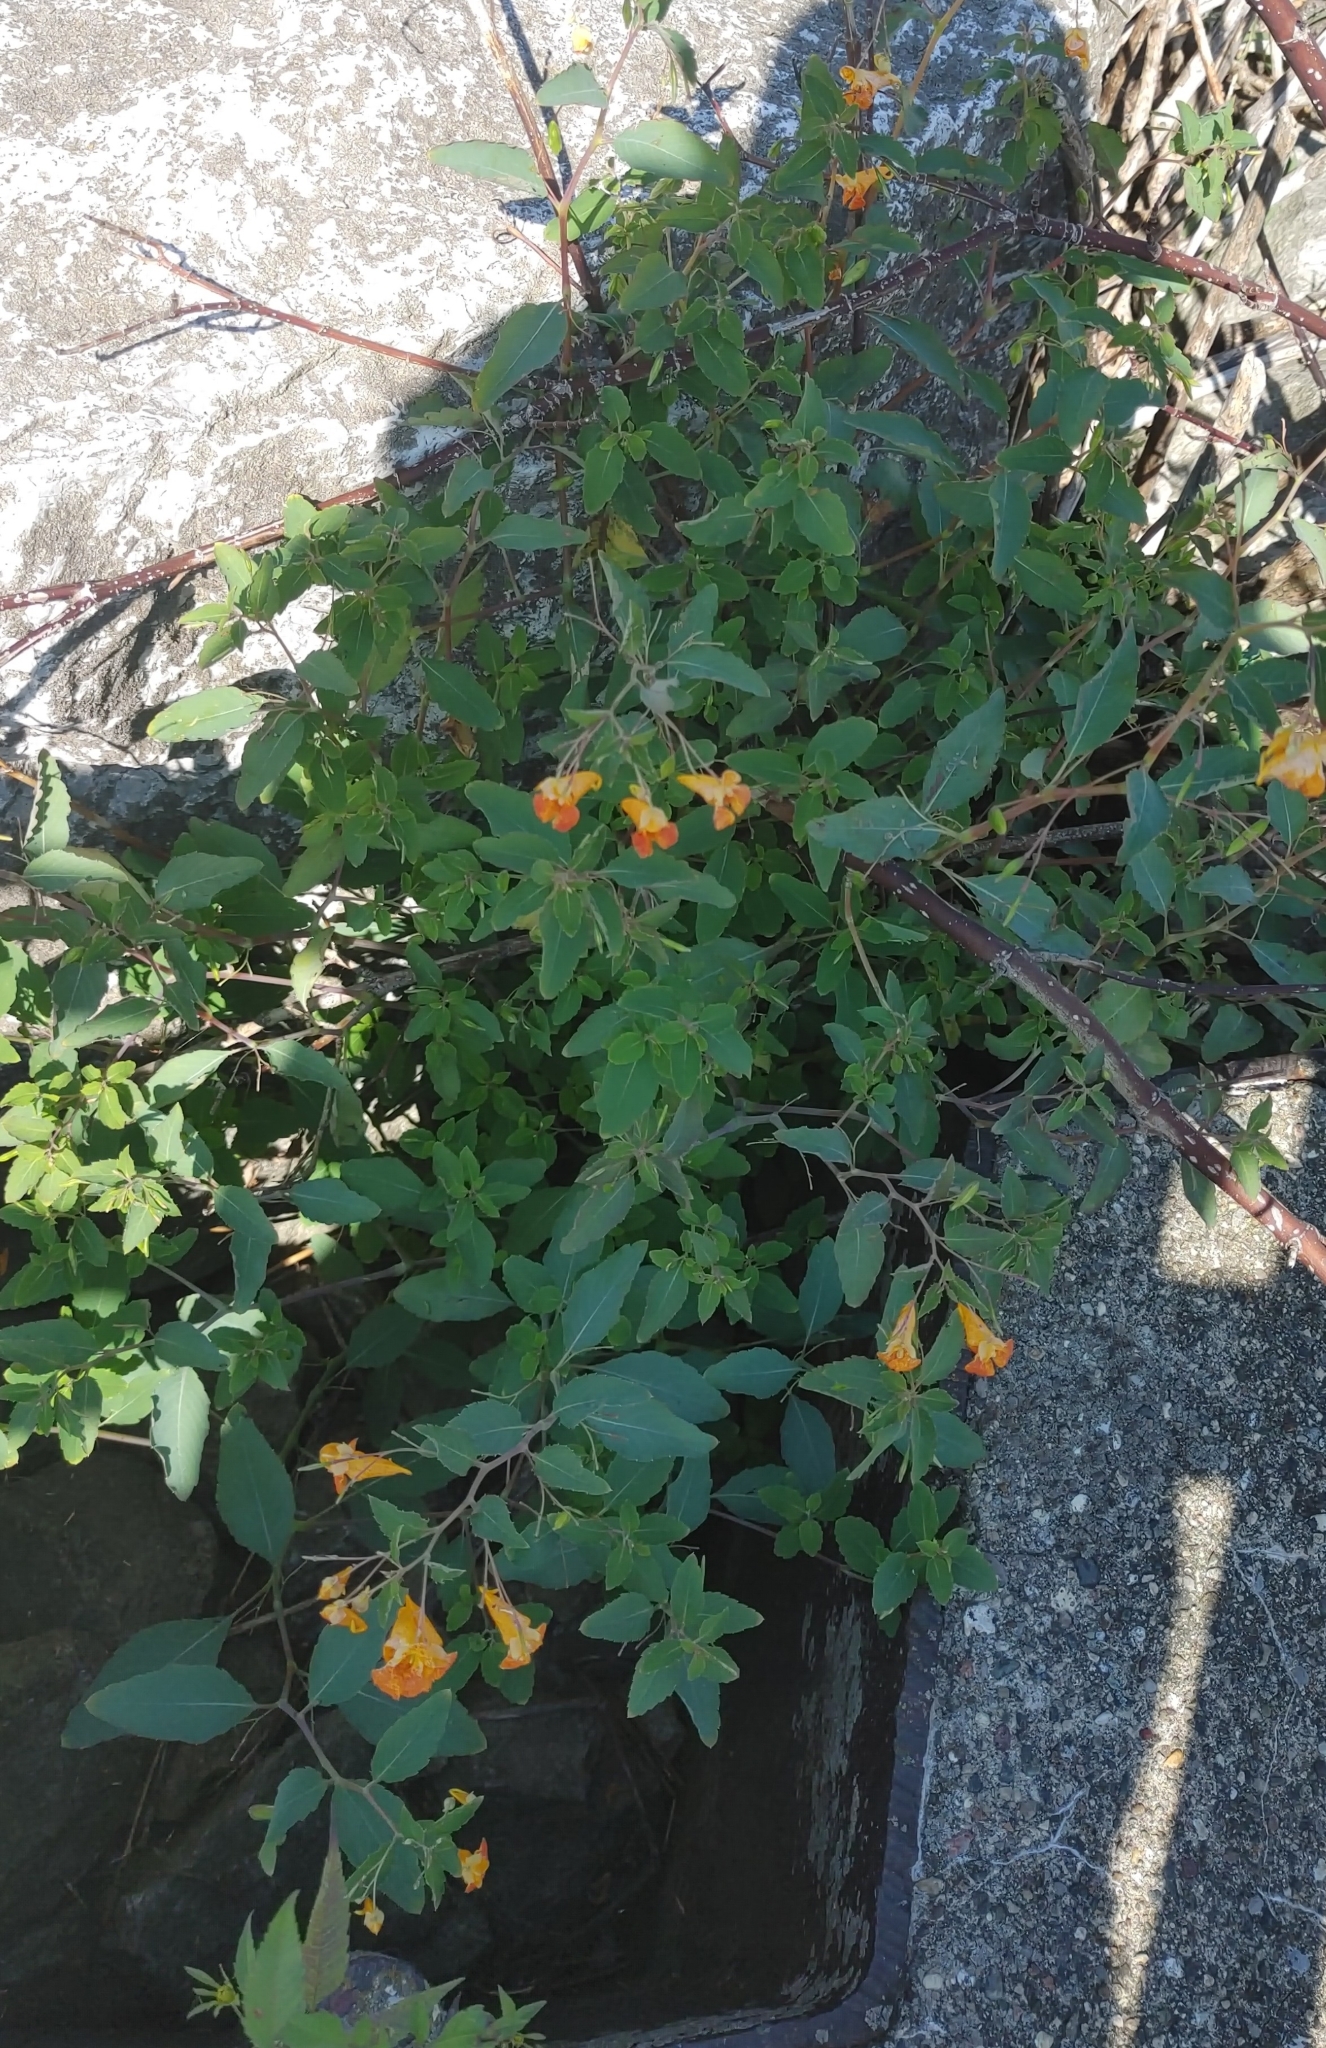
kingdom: Plantae
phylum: Tracheophyta
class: Magnoliopsida
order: Ericales
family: Balsaminaceae
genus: Impatiens
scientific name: Impatiens capensis
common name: Orange balsam
